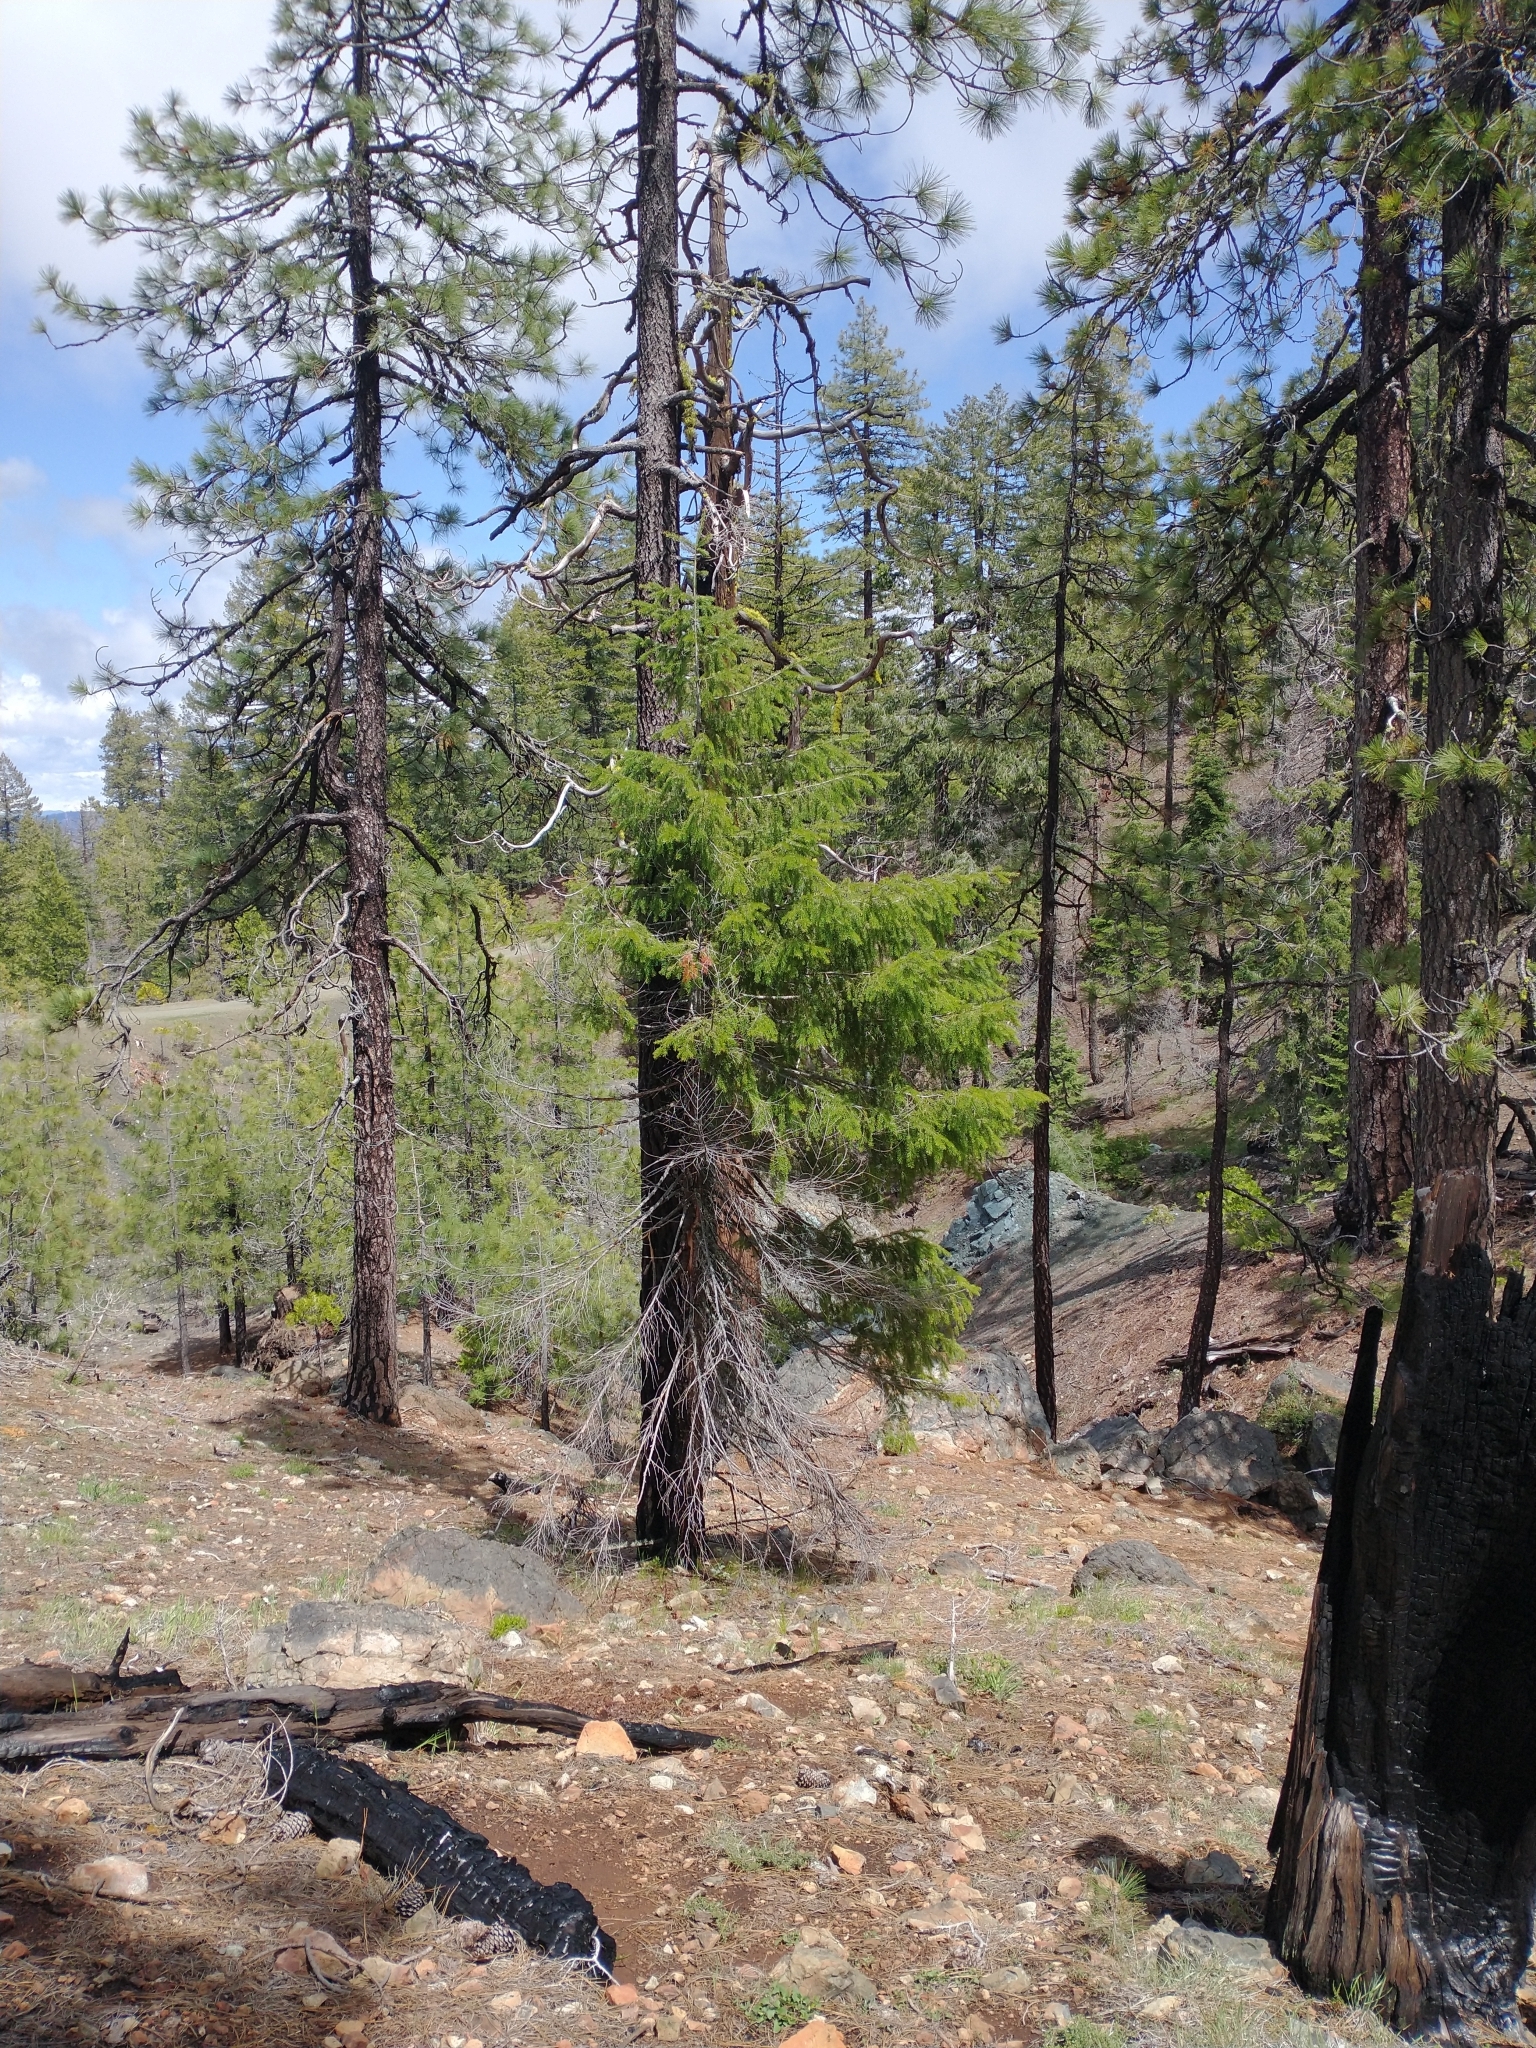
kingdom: Plantae
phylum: Tracheophyta
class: Pinopsida
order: Pinales
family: Pinaceae
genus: Pseudotsuga
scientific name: Pseudotsuga menziesii
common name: Douglas fir
